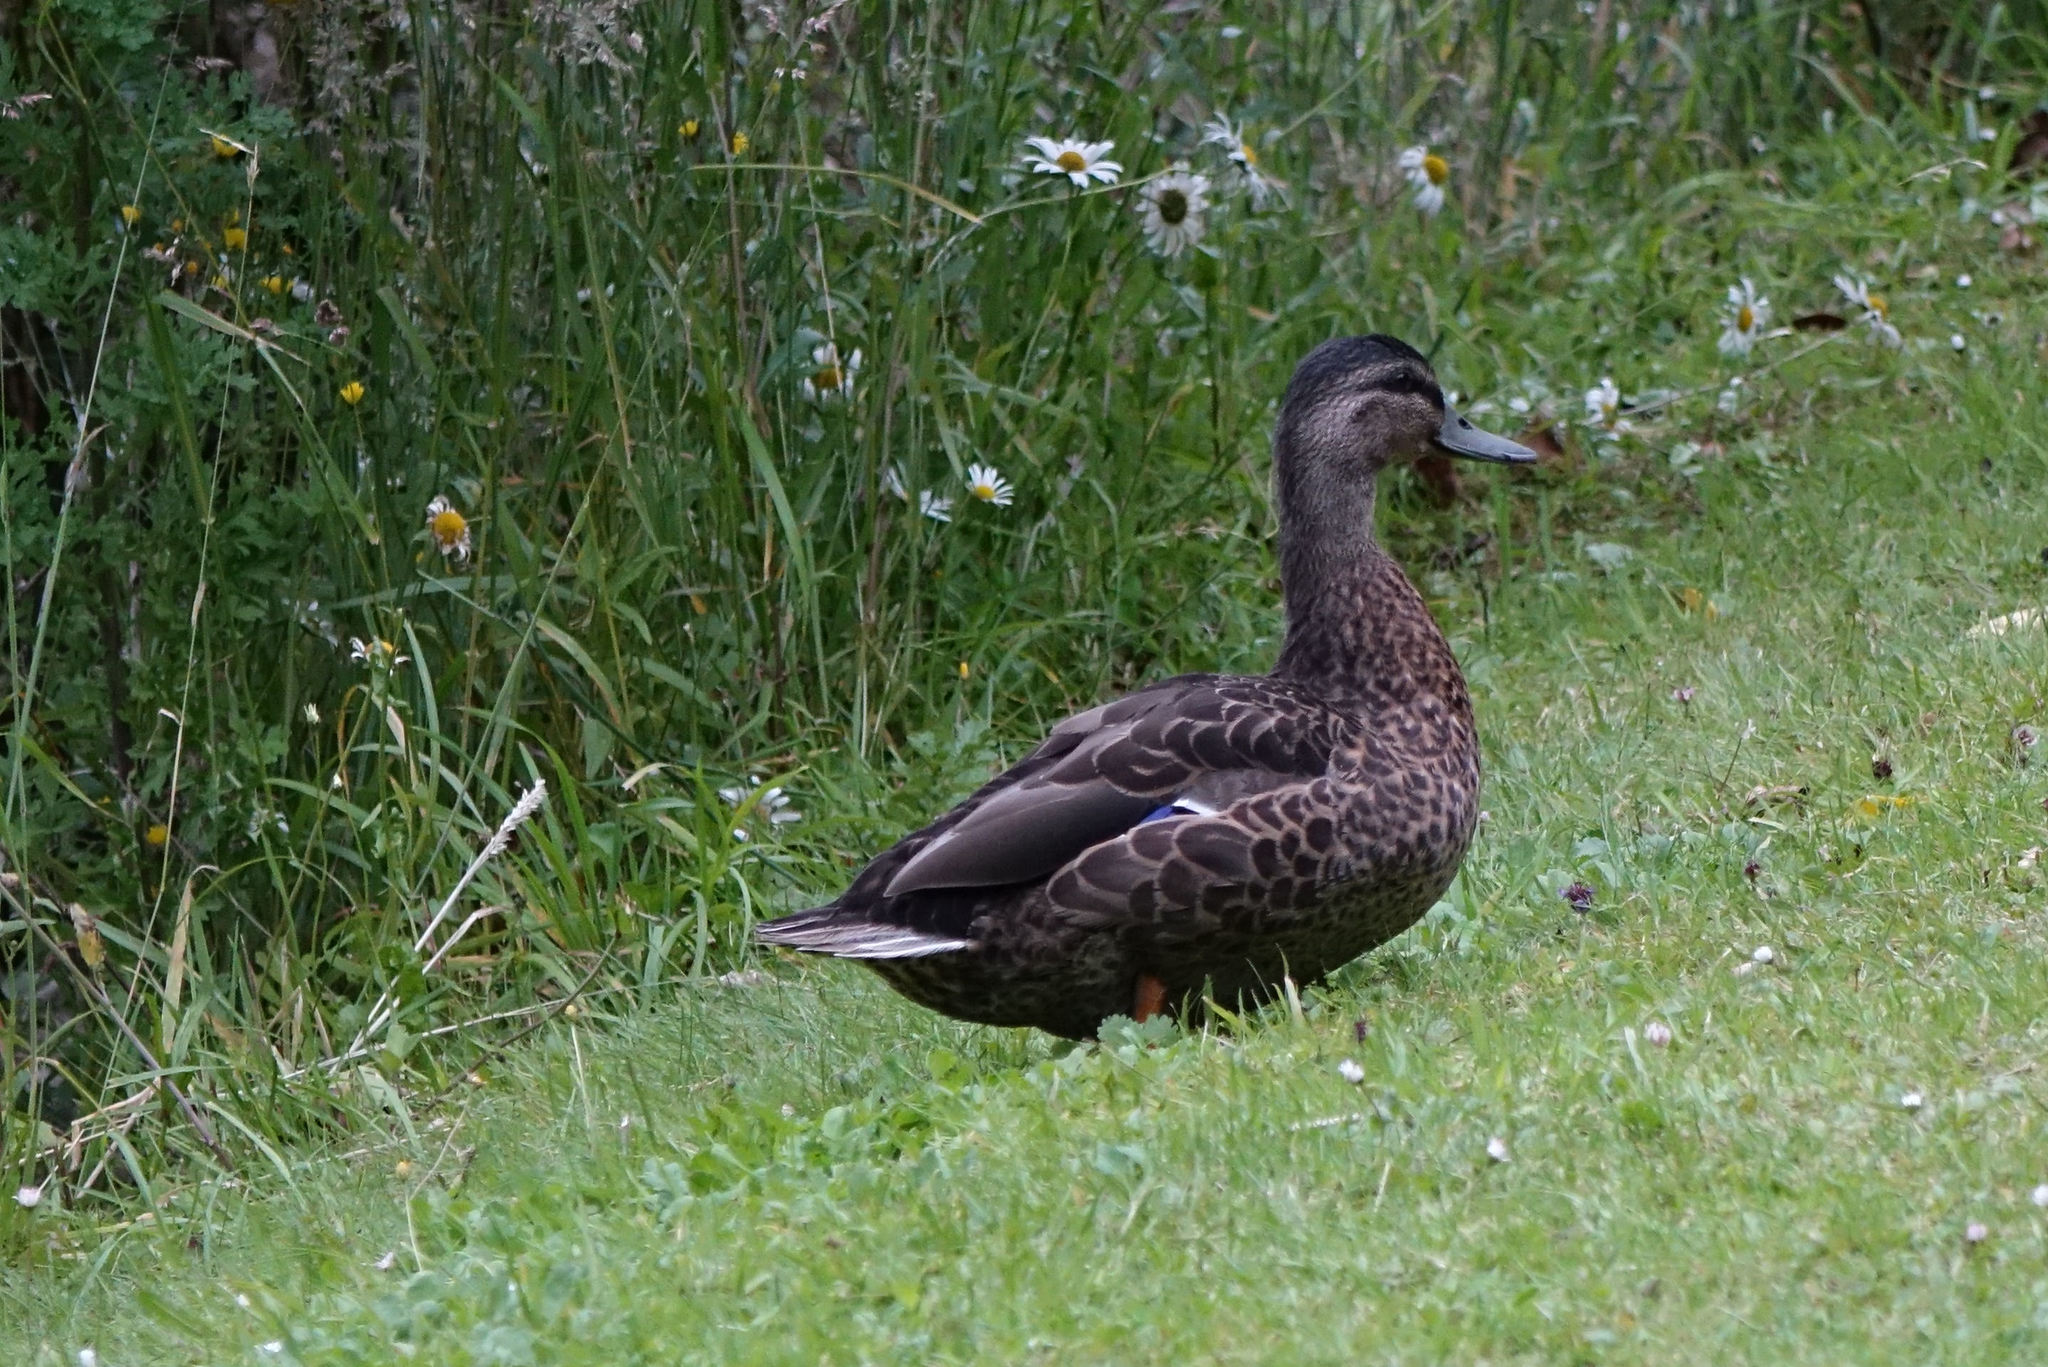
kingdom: Animalia
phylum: Chordata
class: Aves
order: Anseriformes
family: Anatidae
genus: Anas
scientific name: Anas
